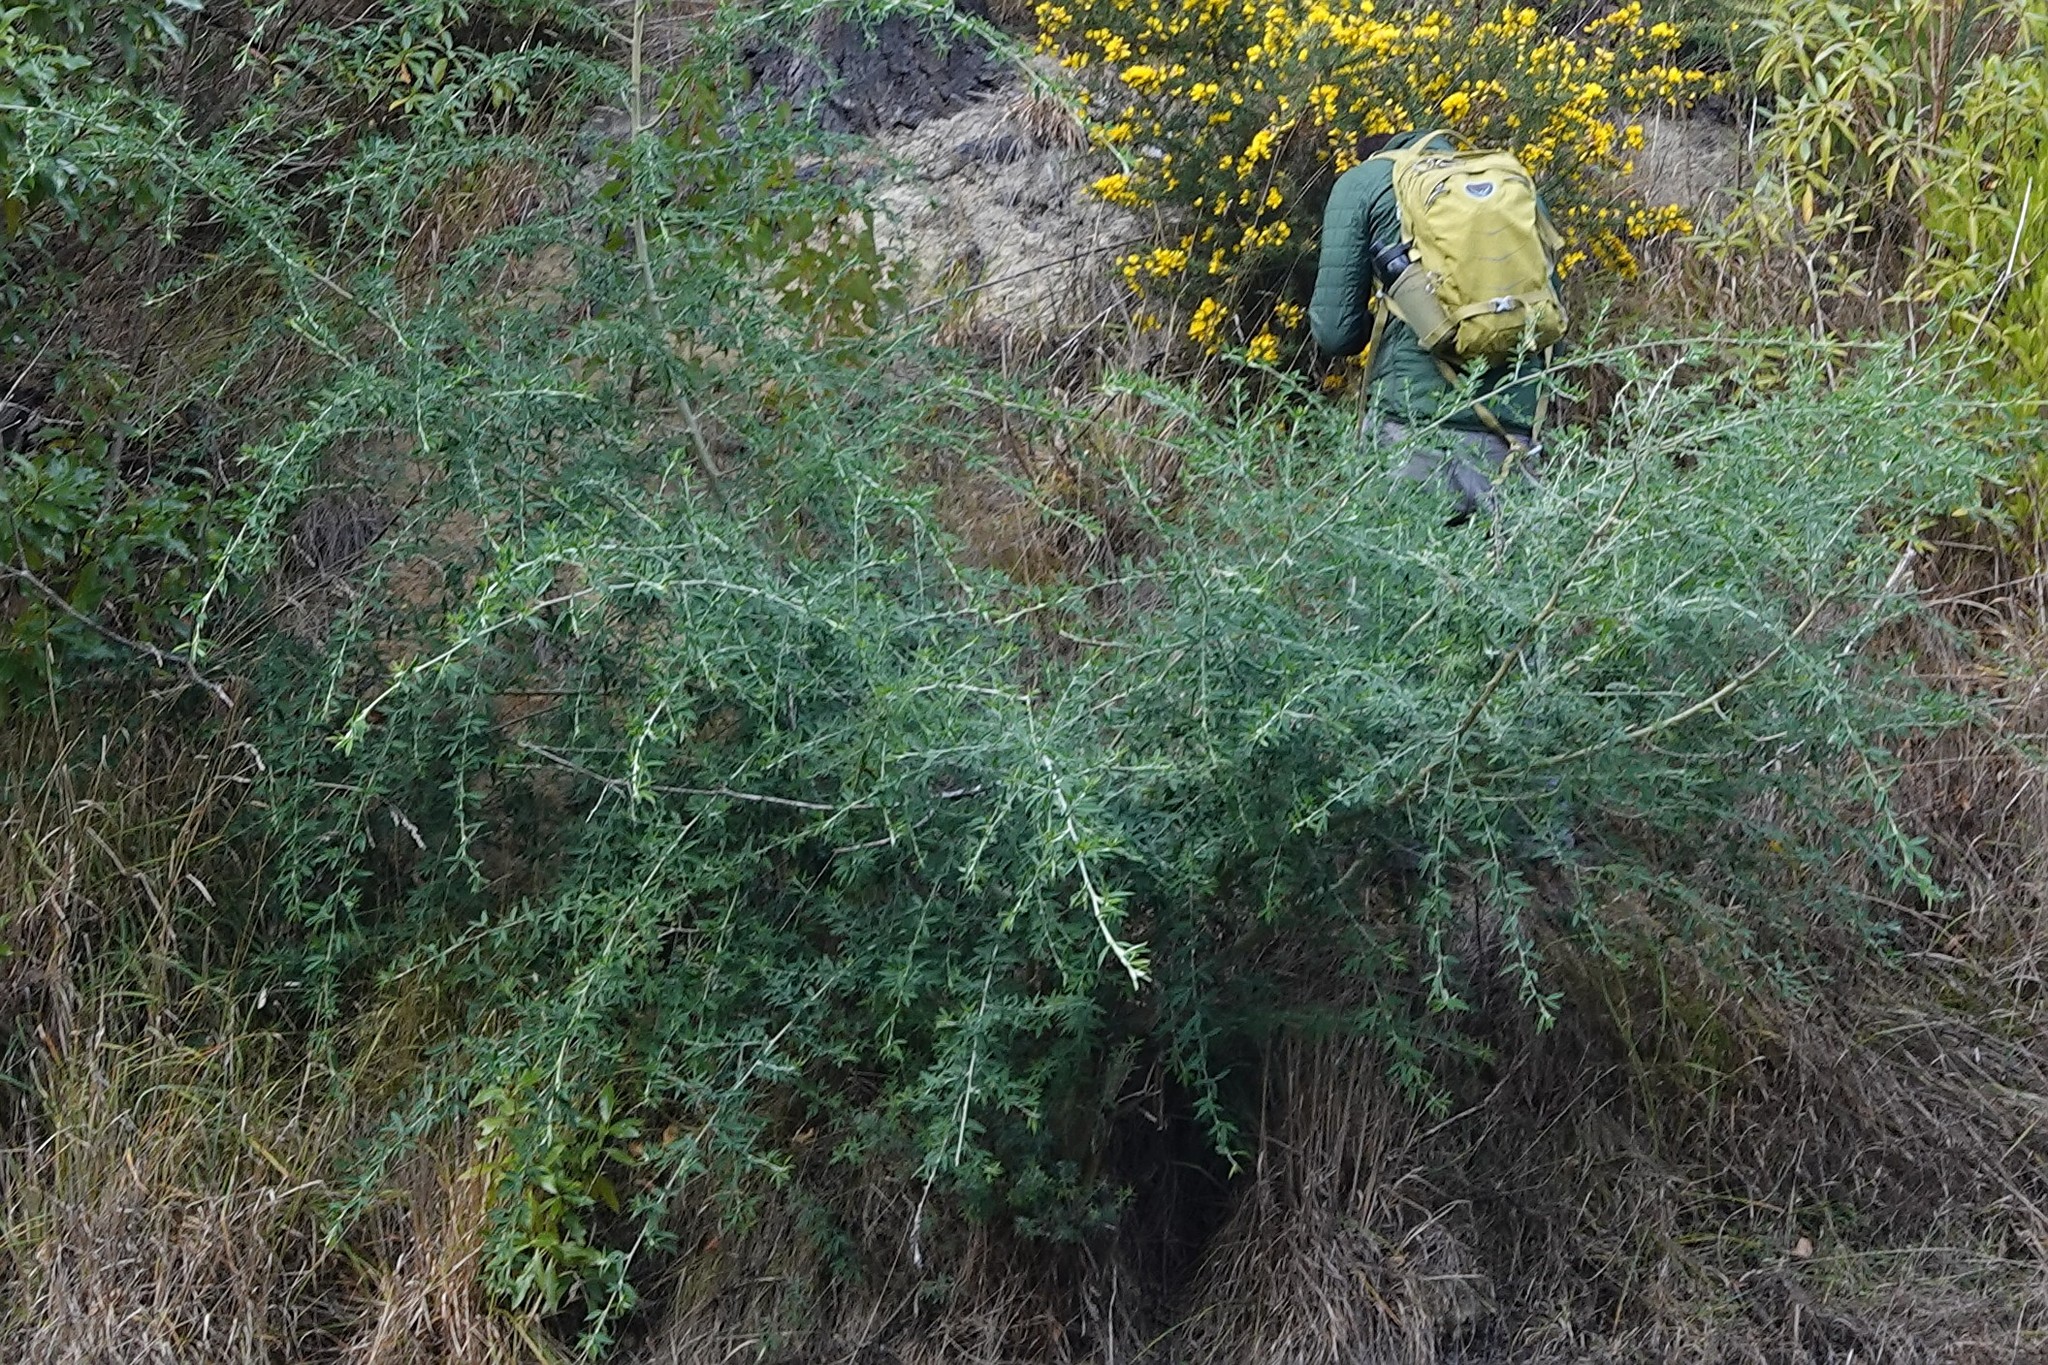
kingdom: Plantae
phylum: Tracheophyta
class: Magnoliopsida
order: Fabales
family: Fabaceae
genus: Chamaecytisus
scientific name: Chamaecytisus prolifer
